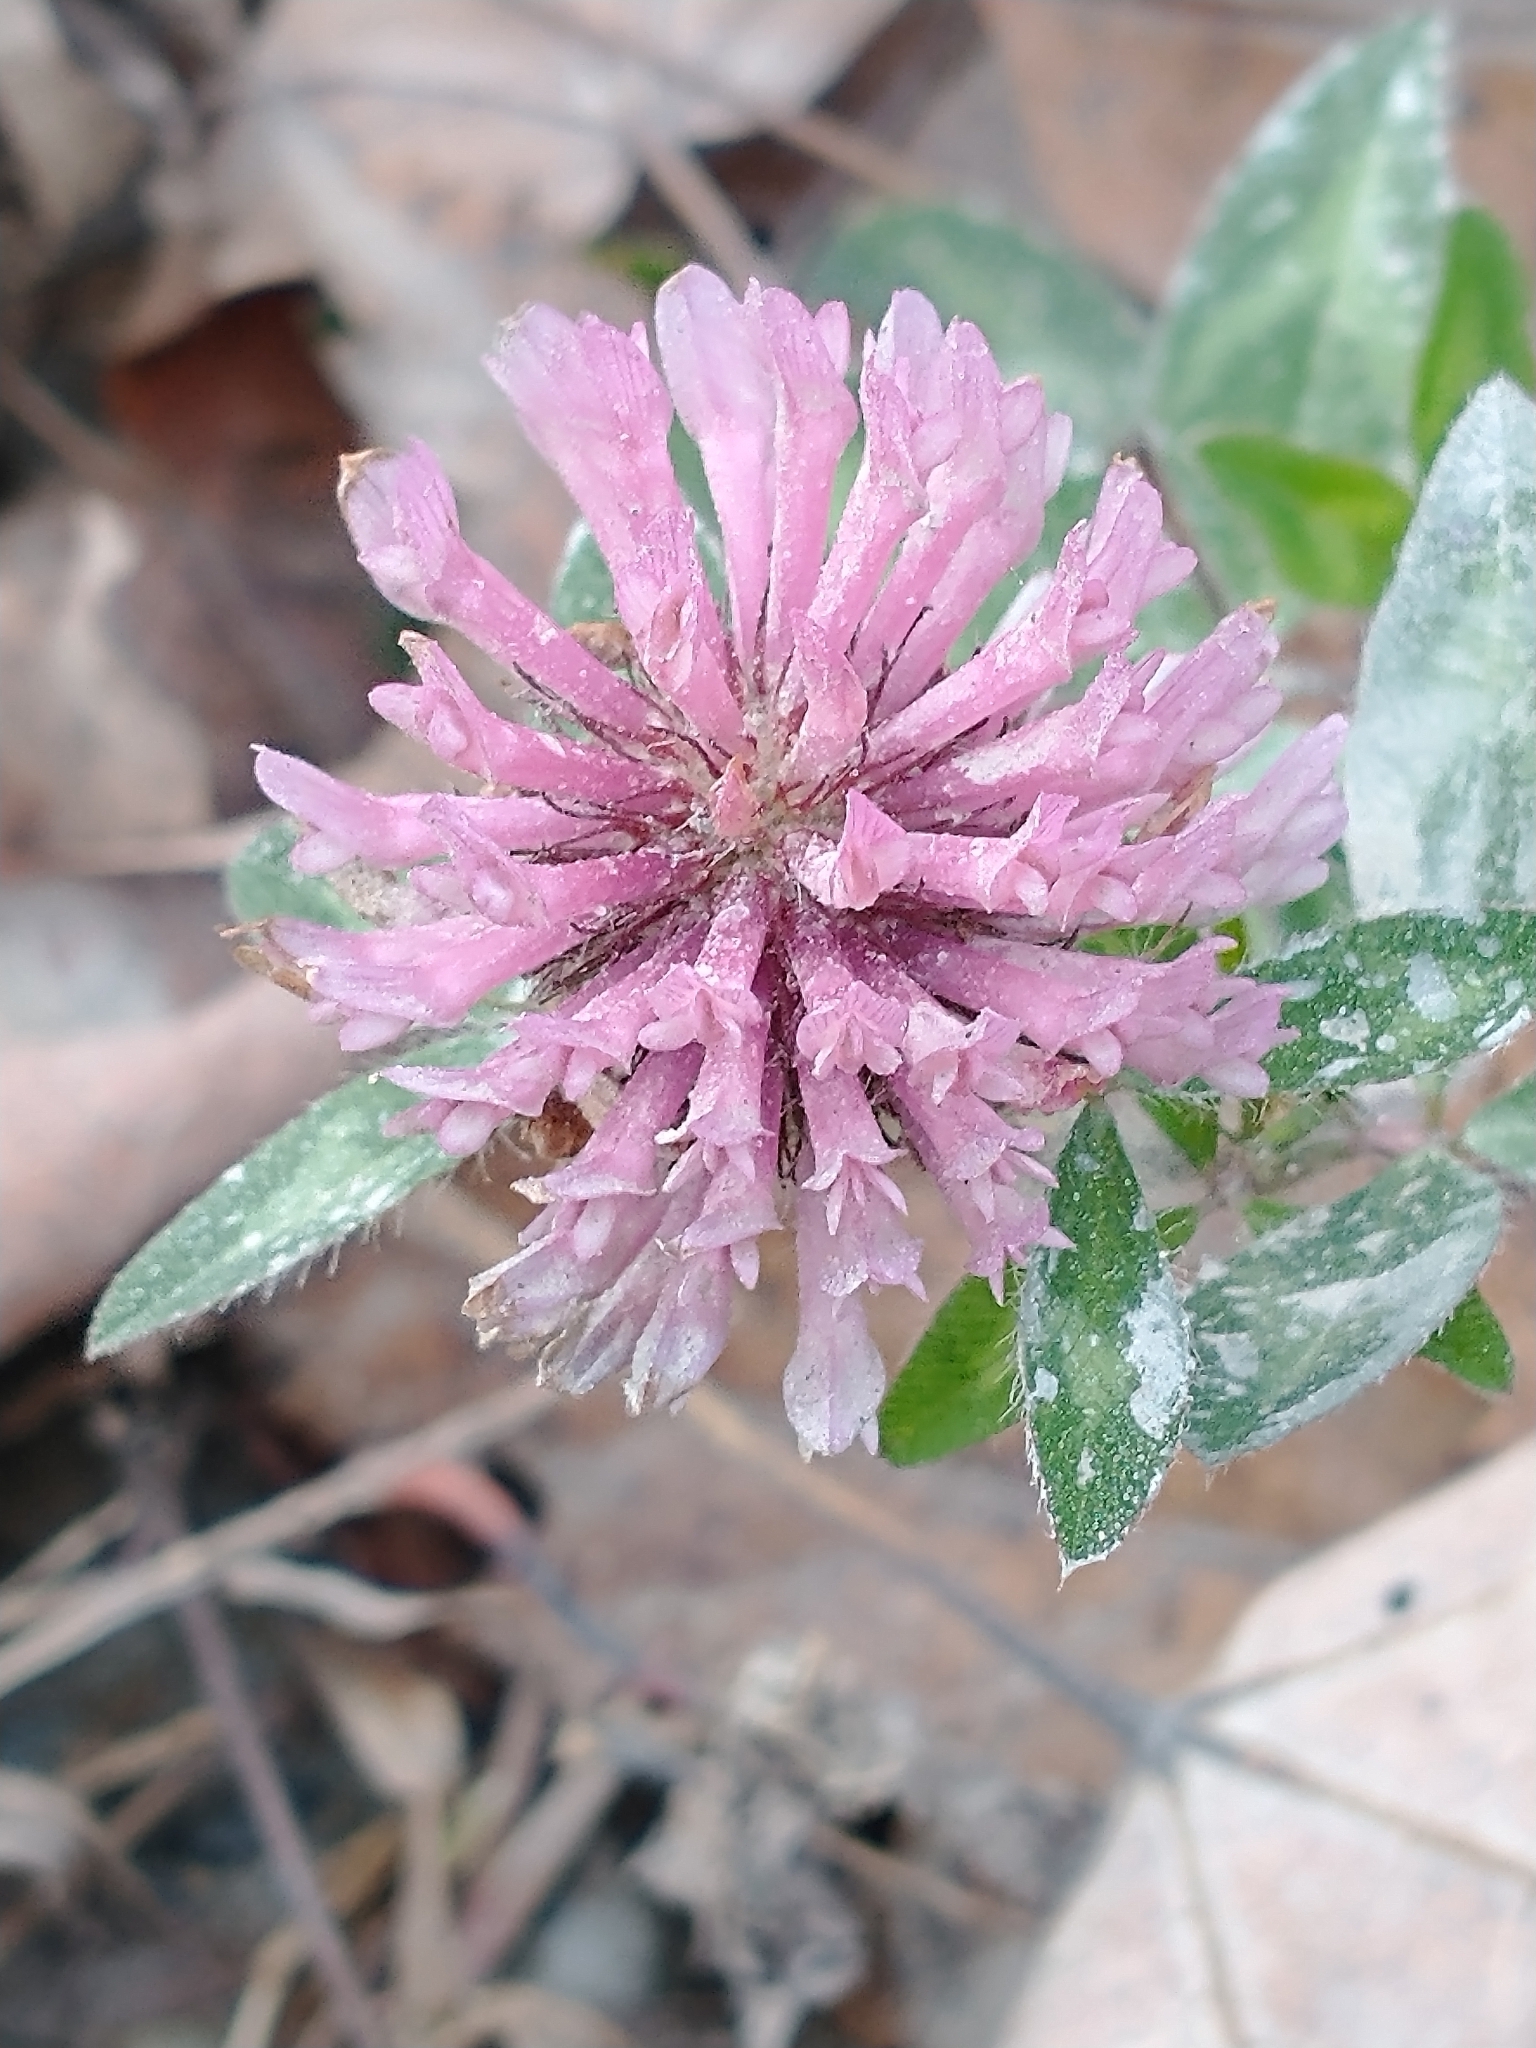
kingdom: Plantae
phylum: Tracheophyta
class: Magnoliopsida
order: Fabales
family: Fabaceae
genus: Trifolium
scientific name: Trifolium pratense
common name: Red clover
